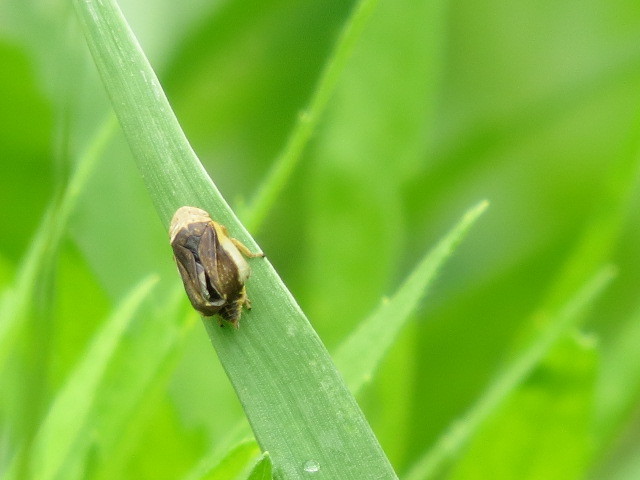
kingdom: Animalia
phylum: Arthropoda
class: Insecta
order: Hemiptera
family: Aphrophoridae
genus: Philaenus
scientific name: Philaenus spumarius
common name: Meadow spittlebug
